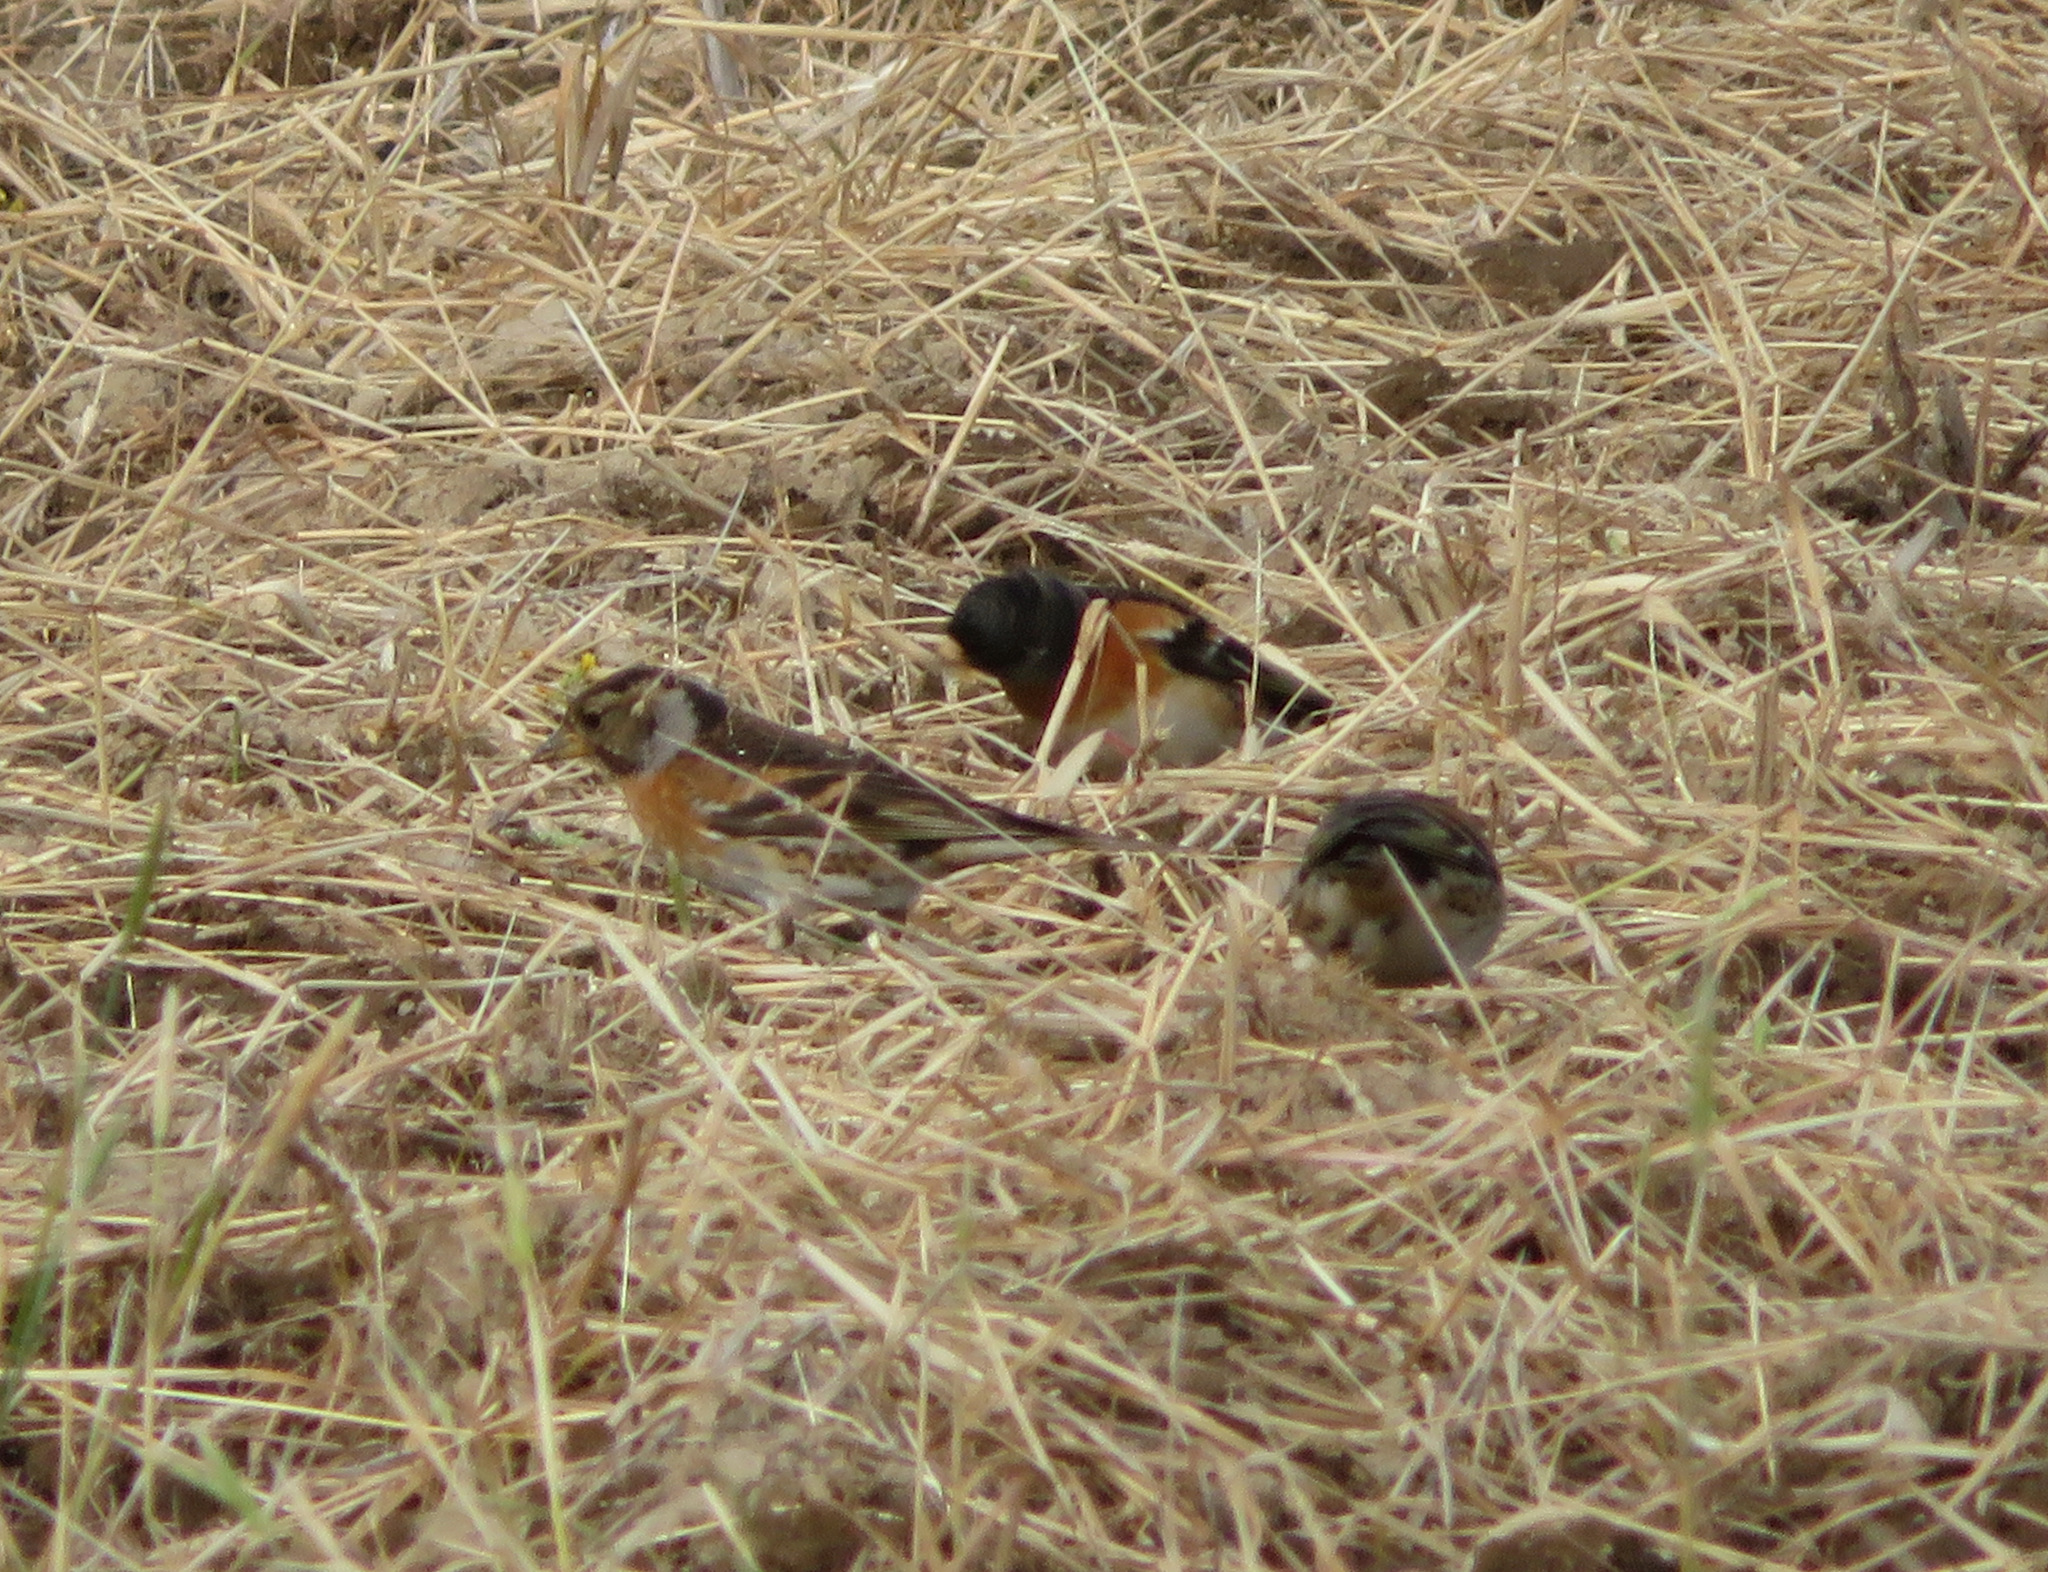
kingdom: Animalia
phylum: Chordata
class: Aves
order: Passeriformes
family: Fringillidae
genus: Fringilla
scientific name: Fringilla montifringilla
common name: Brambling
